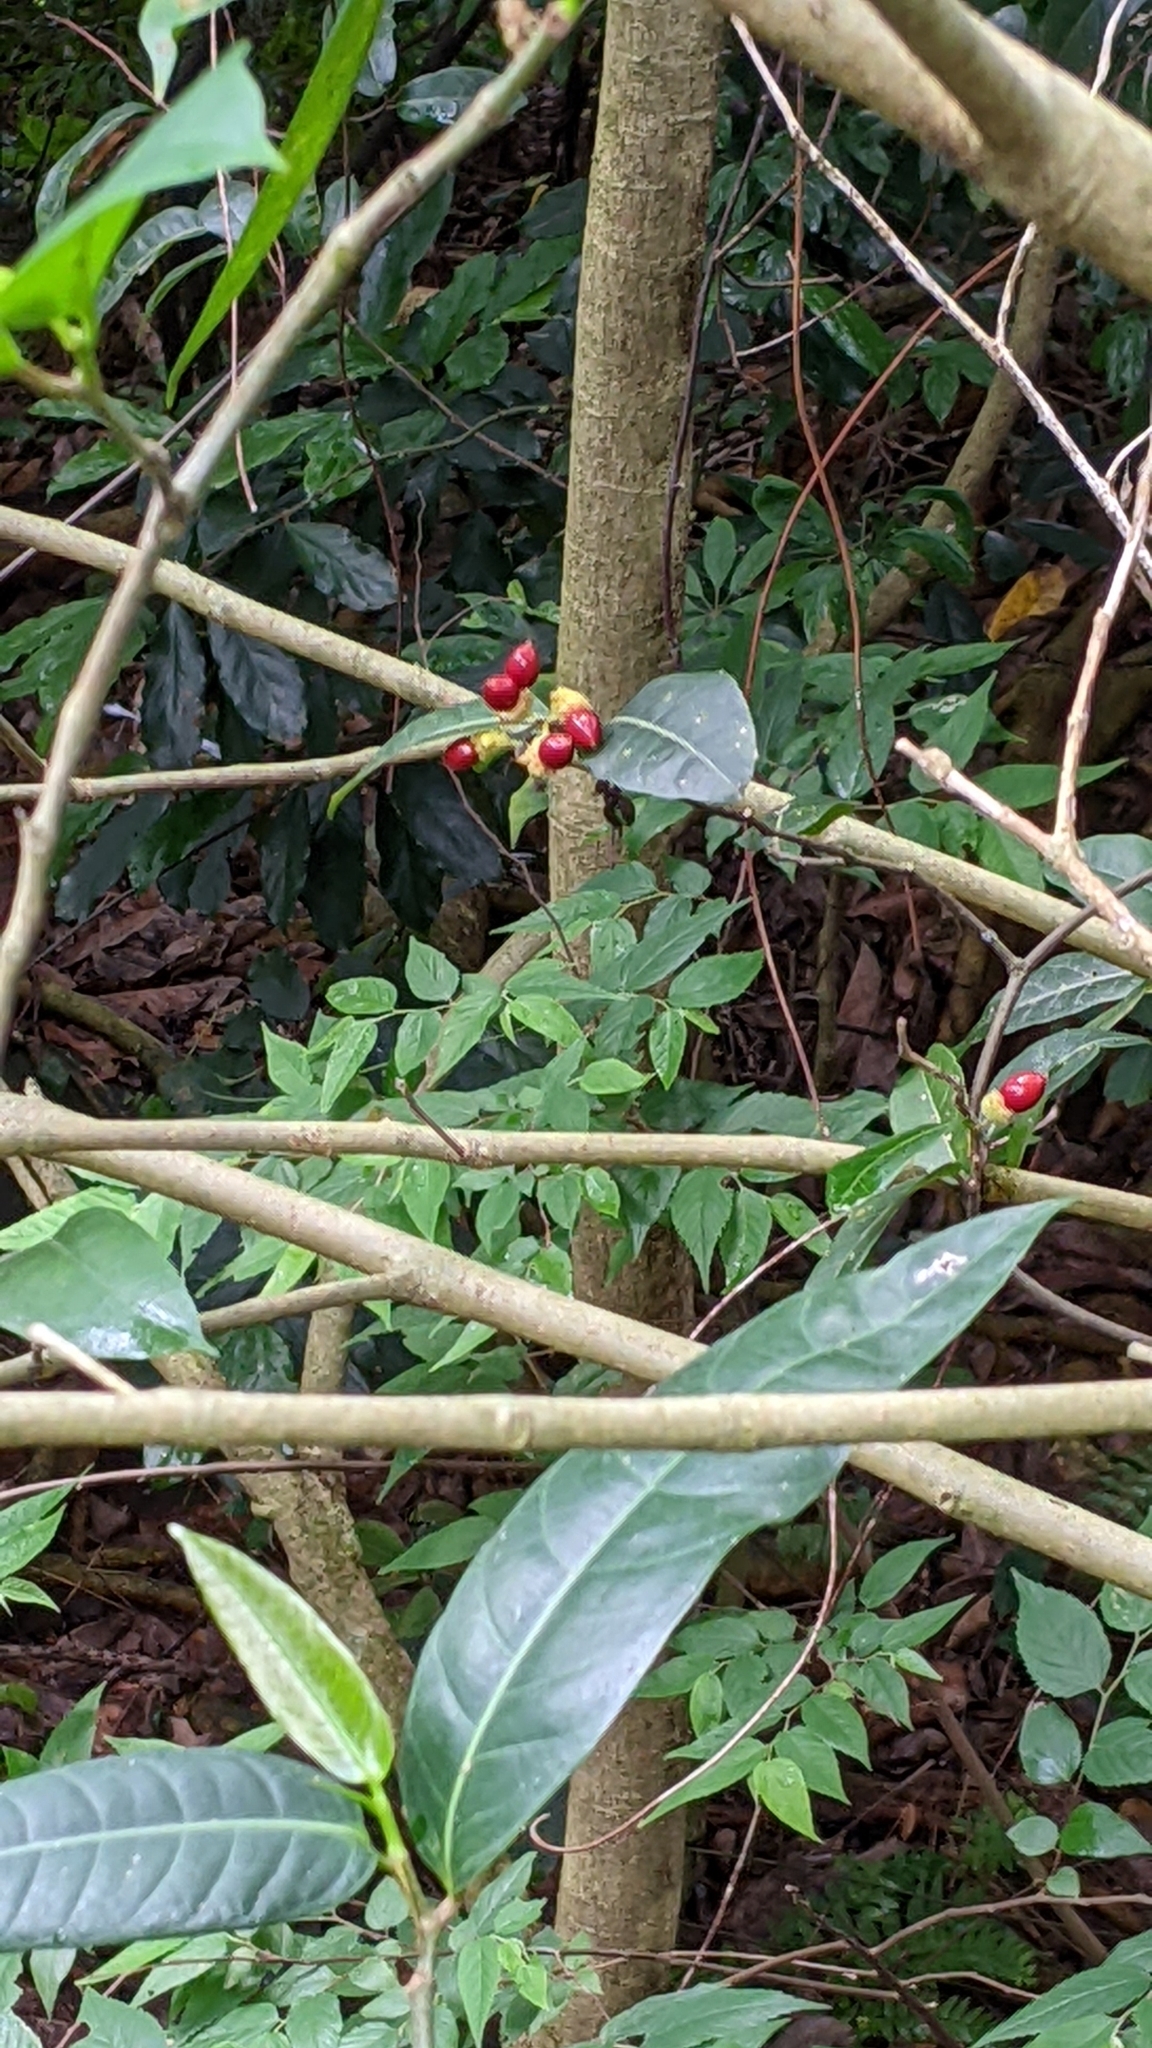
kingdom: Plantae
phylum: Tracheophyta
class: Magnoliopsida
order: Rosales
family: Moraceae
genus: Malaisia
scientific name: Malaisia scandens
